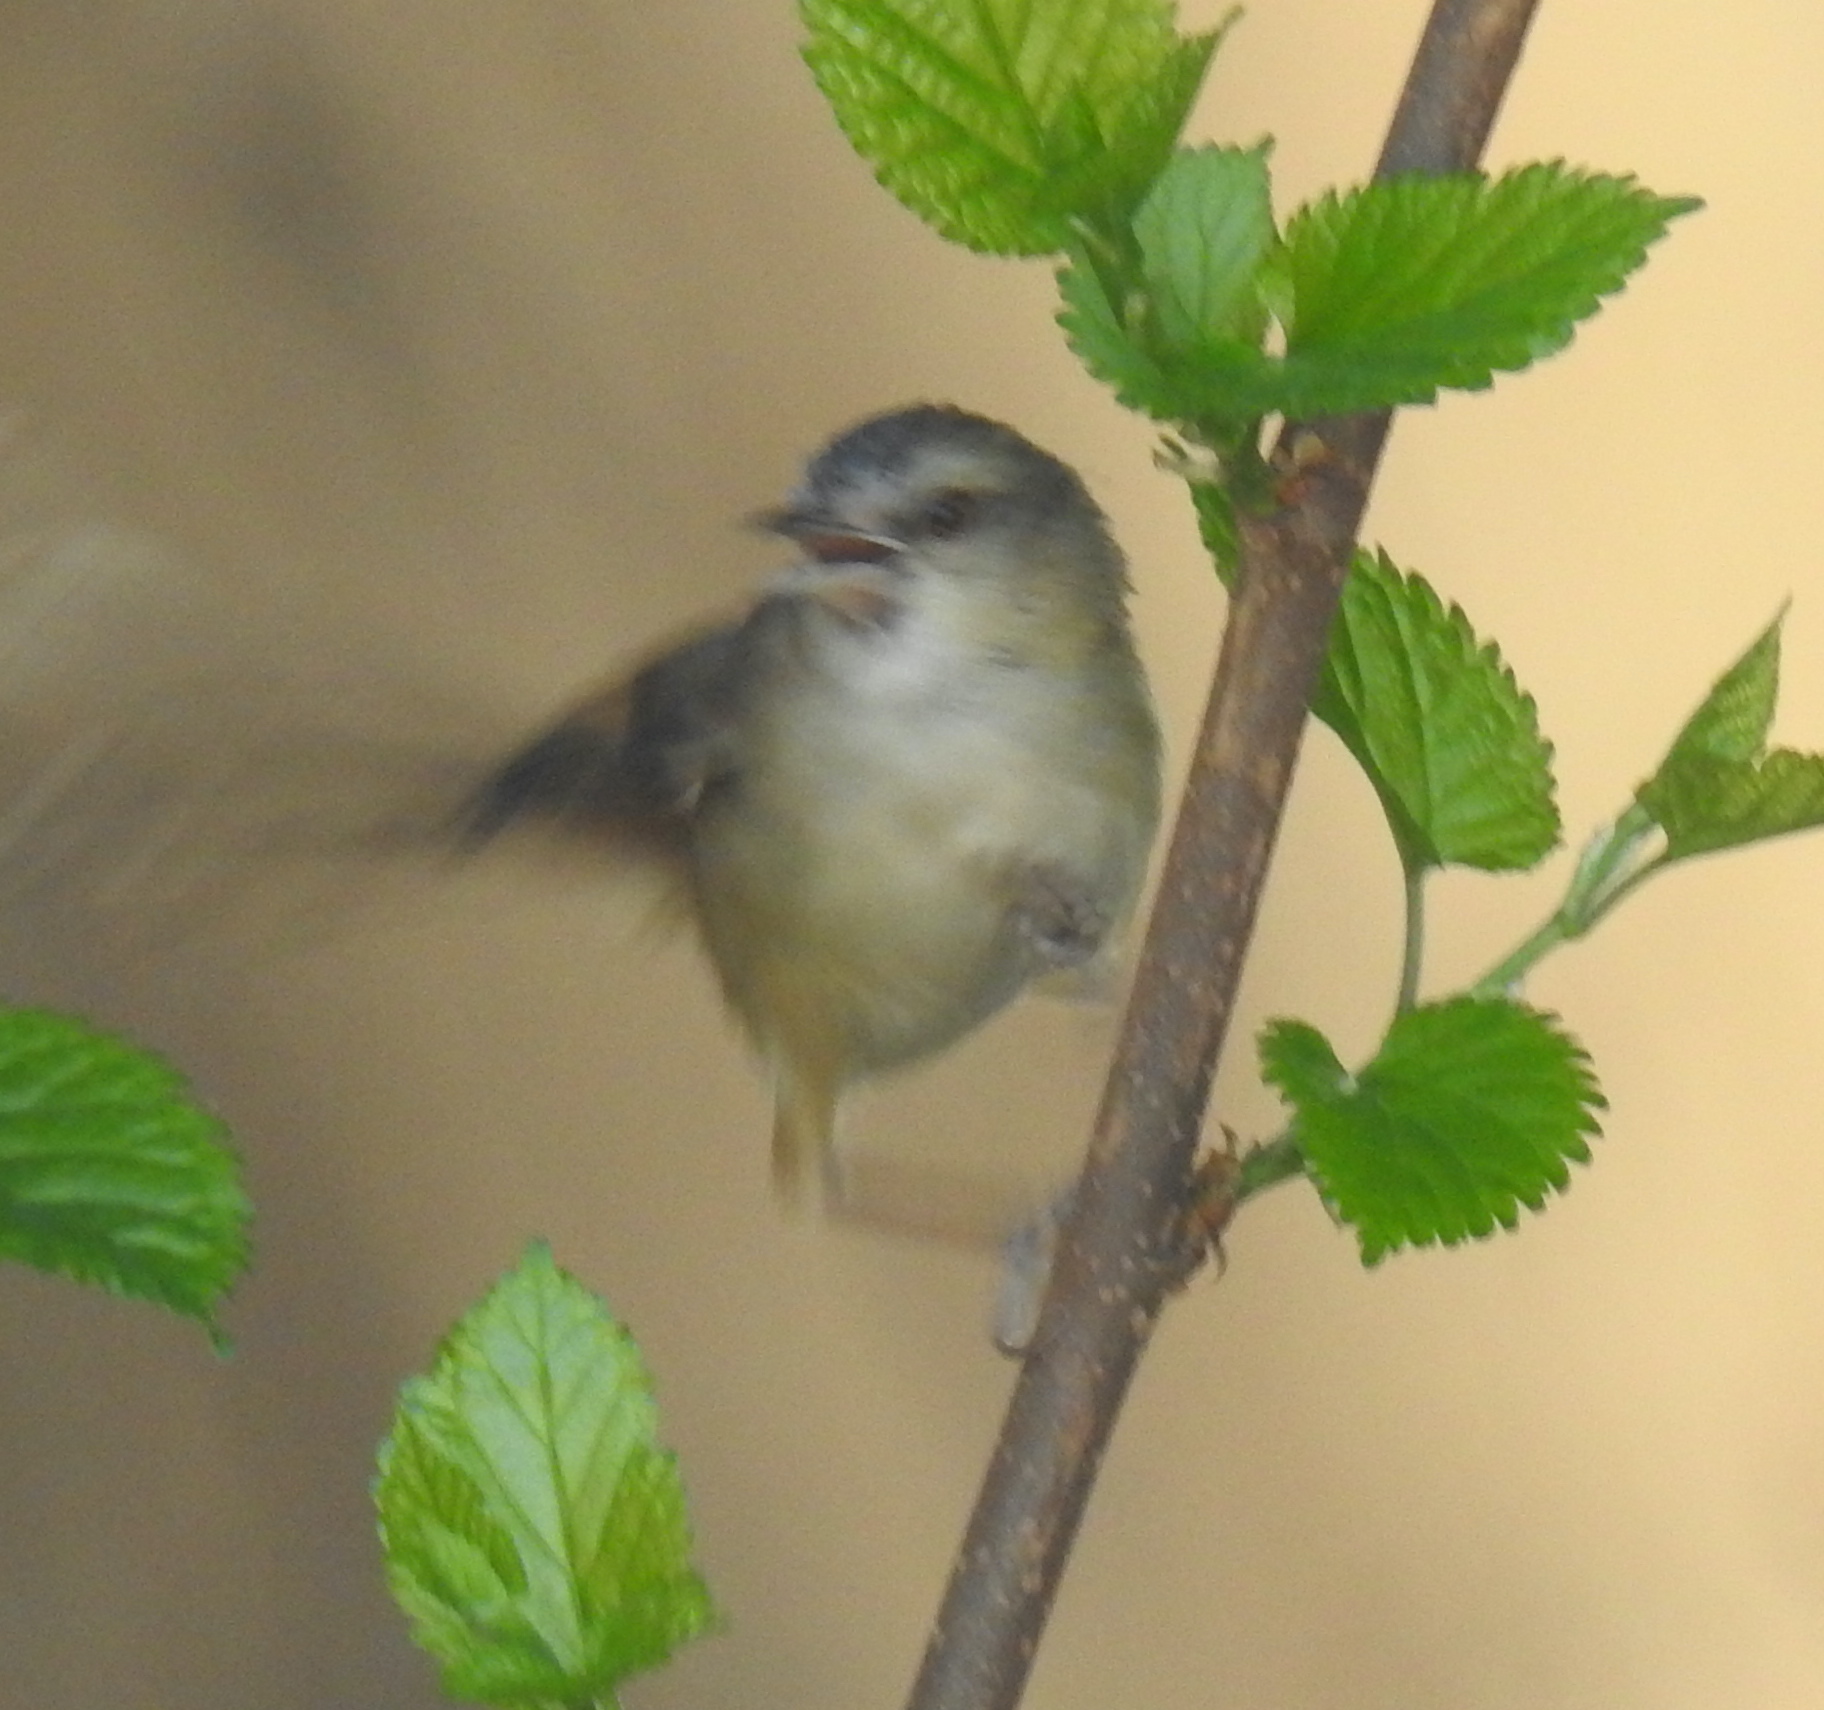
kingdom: Animalia
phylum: Chordata
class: Aves
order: Passeriformes
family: Cisticolidae
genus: Prinia
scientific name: Prinia subflava
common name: Tawny-flanked prinia
